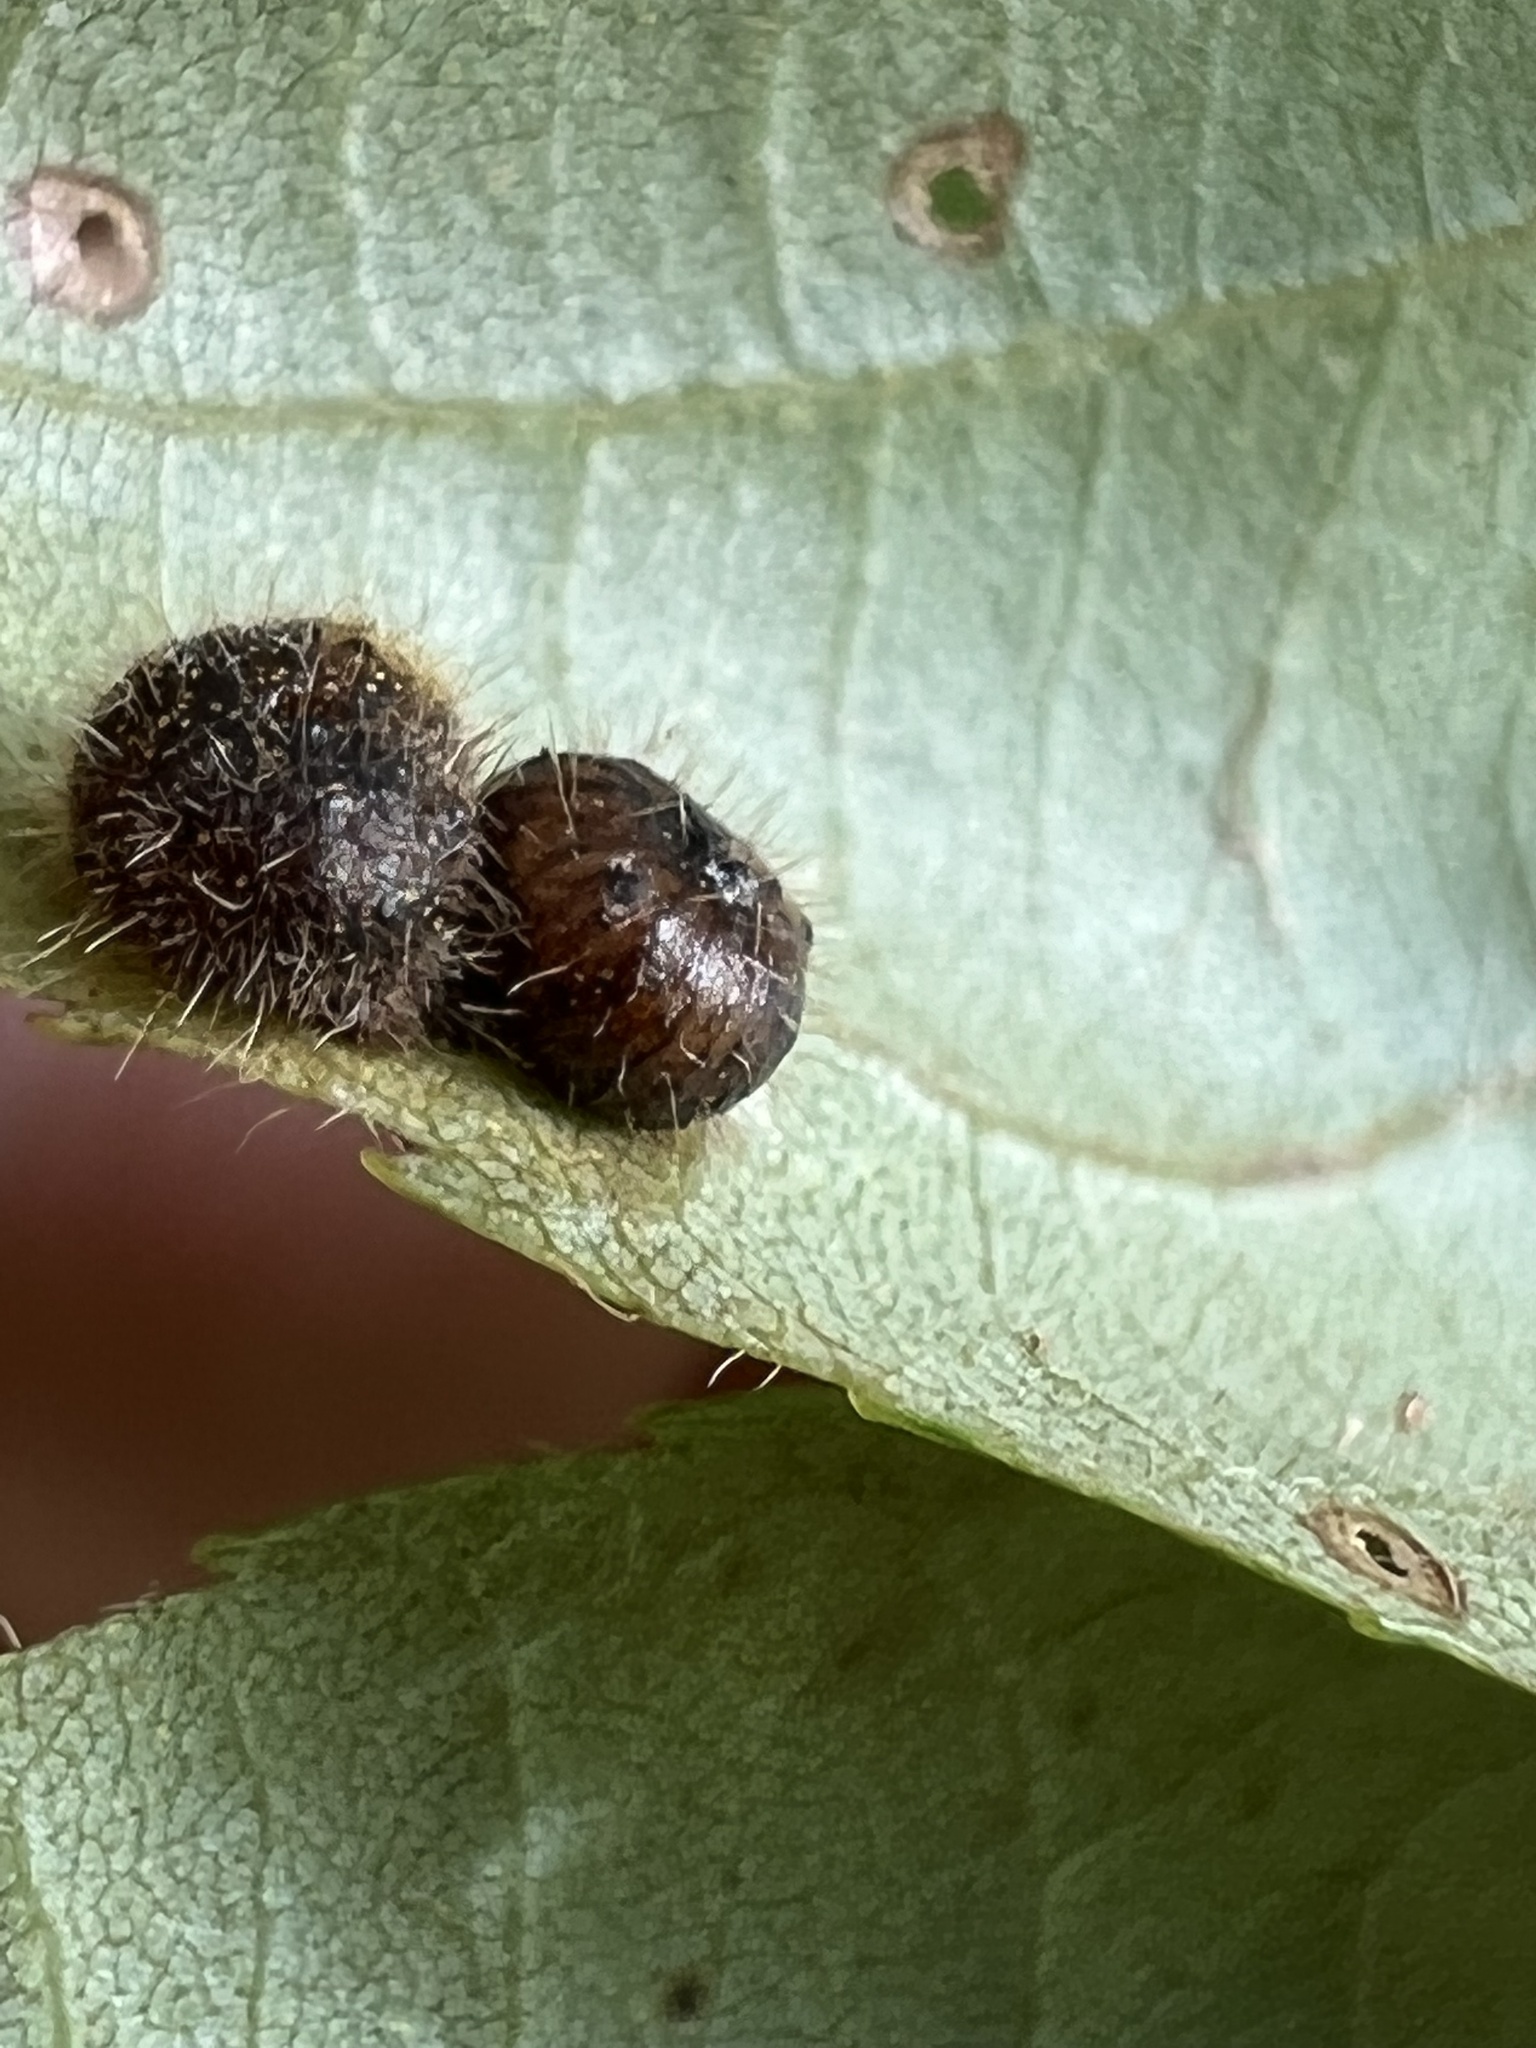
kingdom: Animalia
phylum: Arthropoda
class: Insecta
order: Diptera
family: Cecidomyiidae
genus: Caryomyia
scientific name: Caryomyia thompsoni
